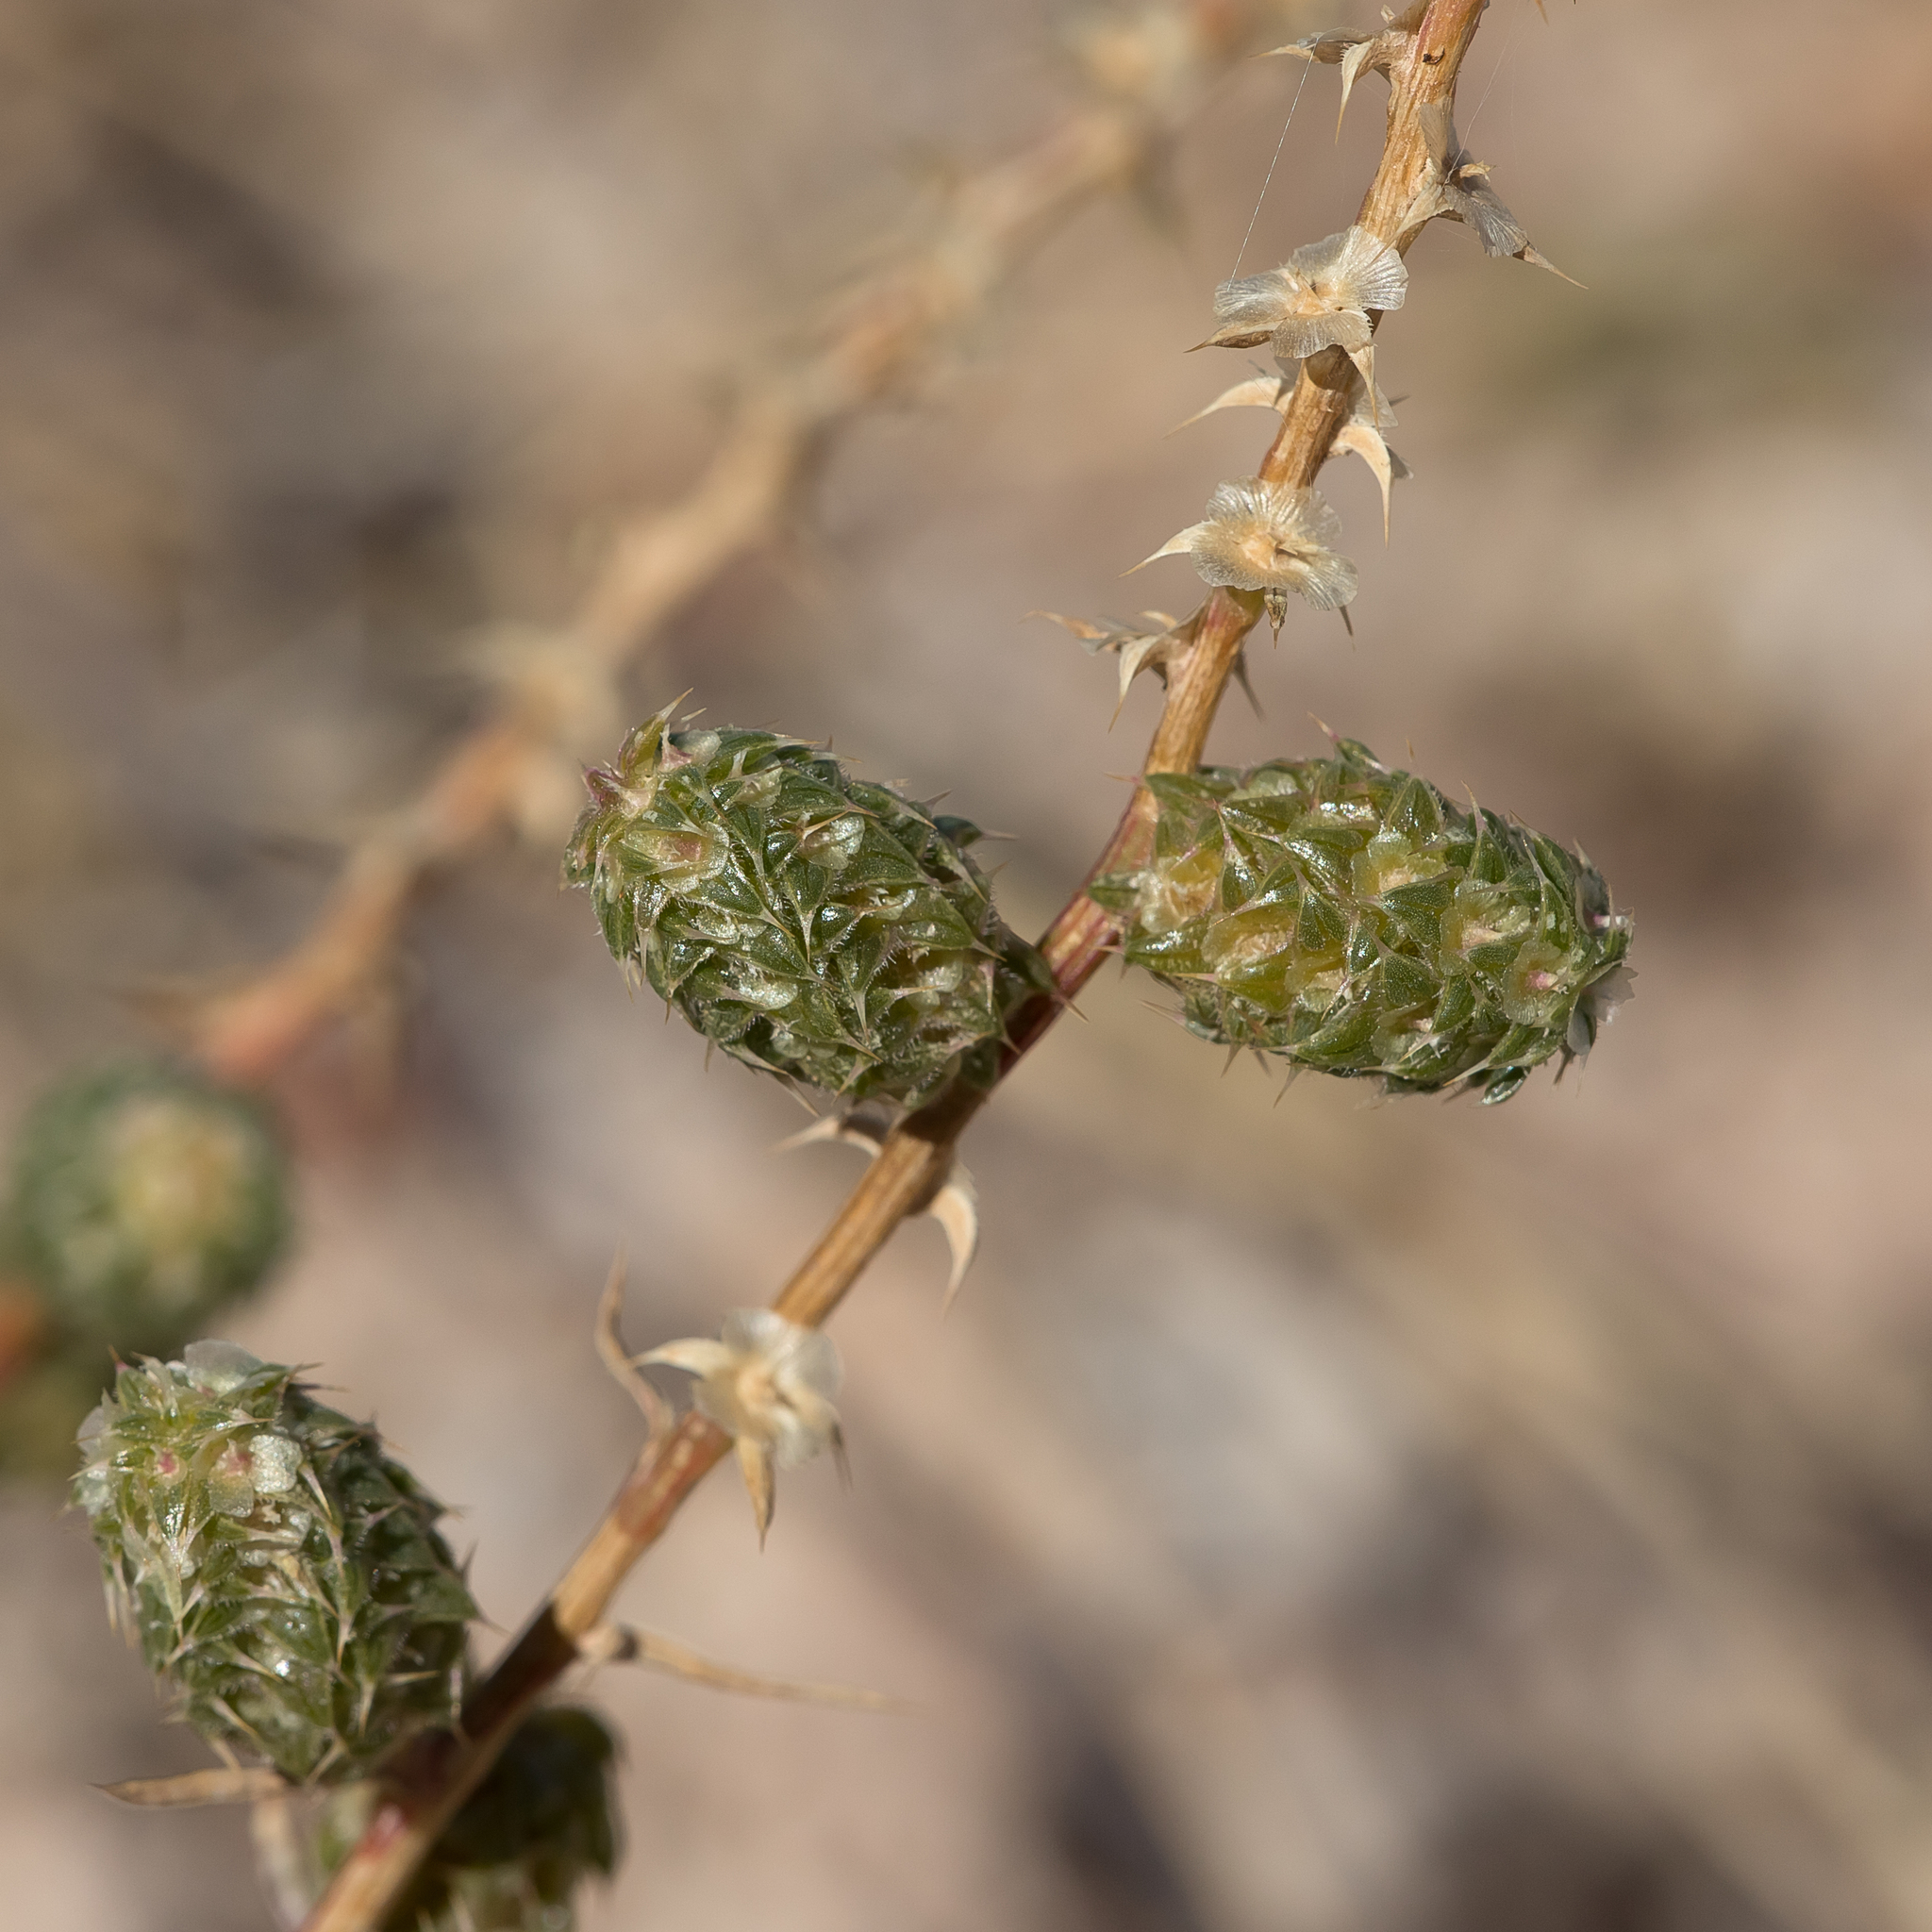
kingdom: Plantae
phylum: Tracheophyta
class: Magnoliopsida
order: Caryophyllales
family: Amaranthaceae
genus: Salsola
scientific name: Salsola australis
